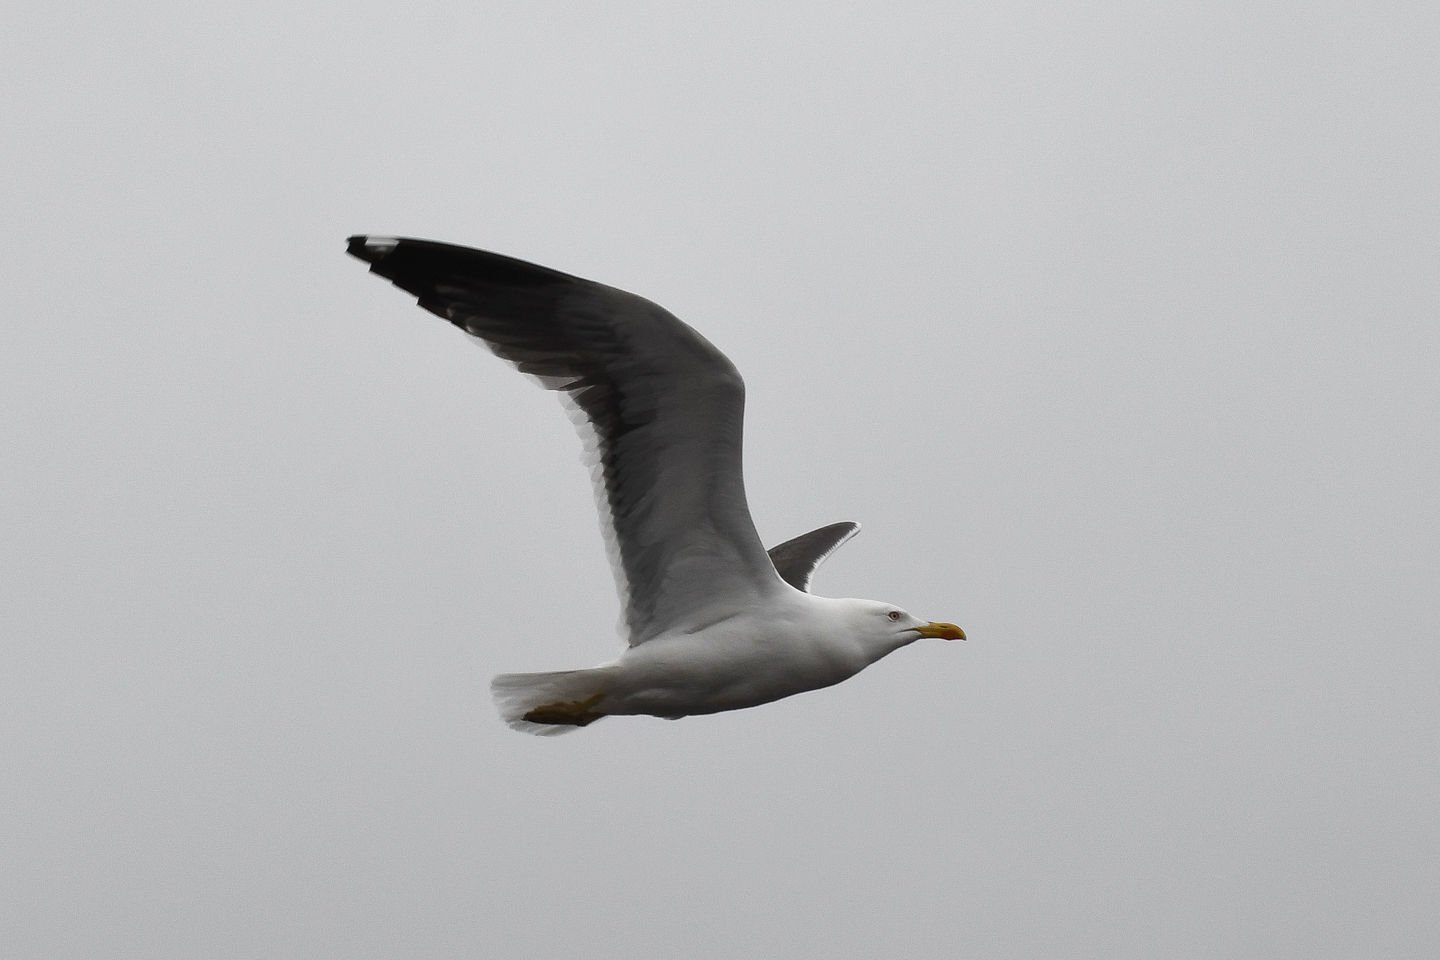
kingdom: Animalia
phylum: Chordata
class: Aves
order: Charadriiformes
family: Laridae
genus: Larus
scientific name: Larus fuscus
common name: Lesser black-backed gull
